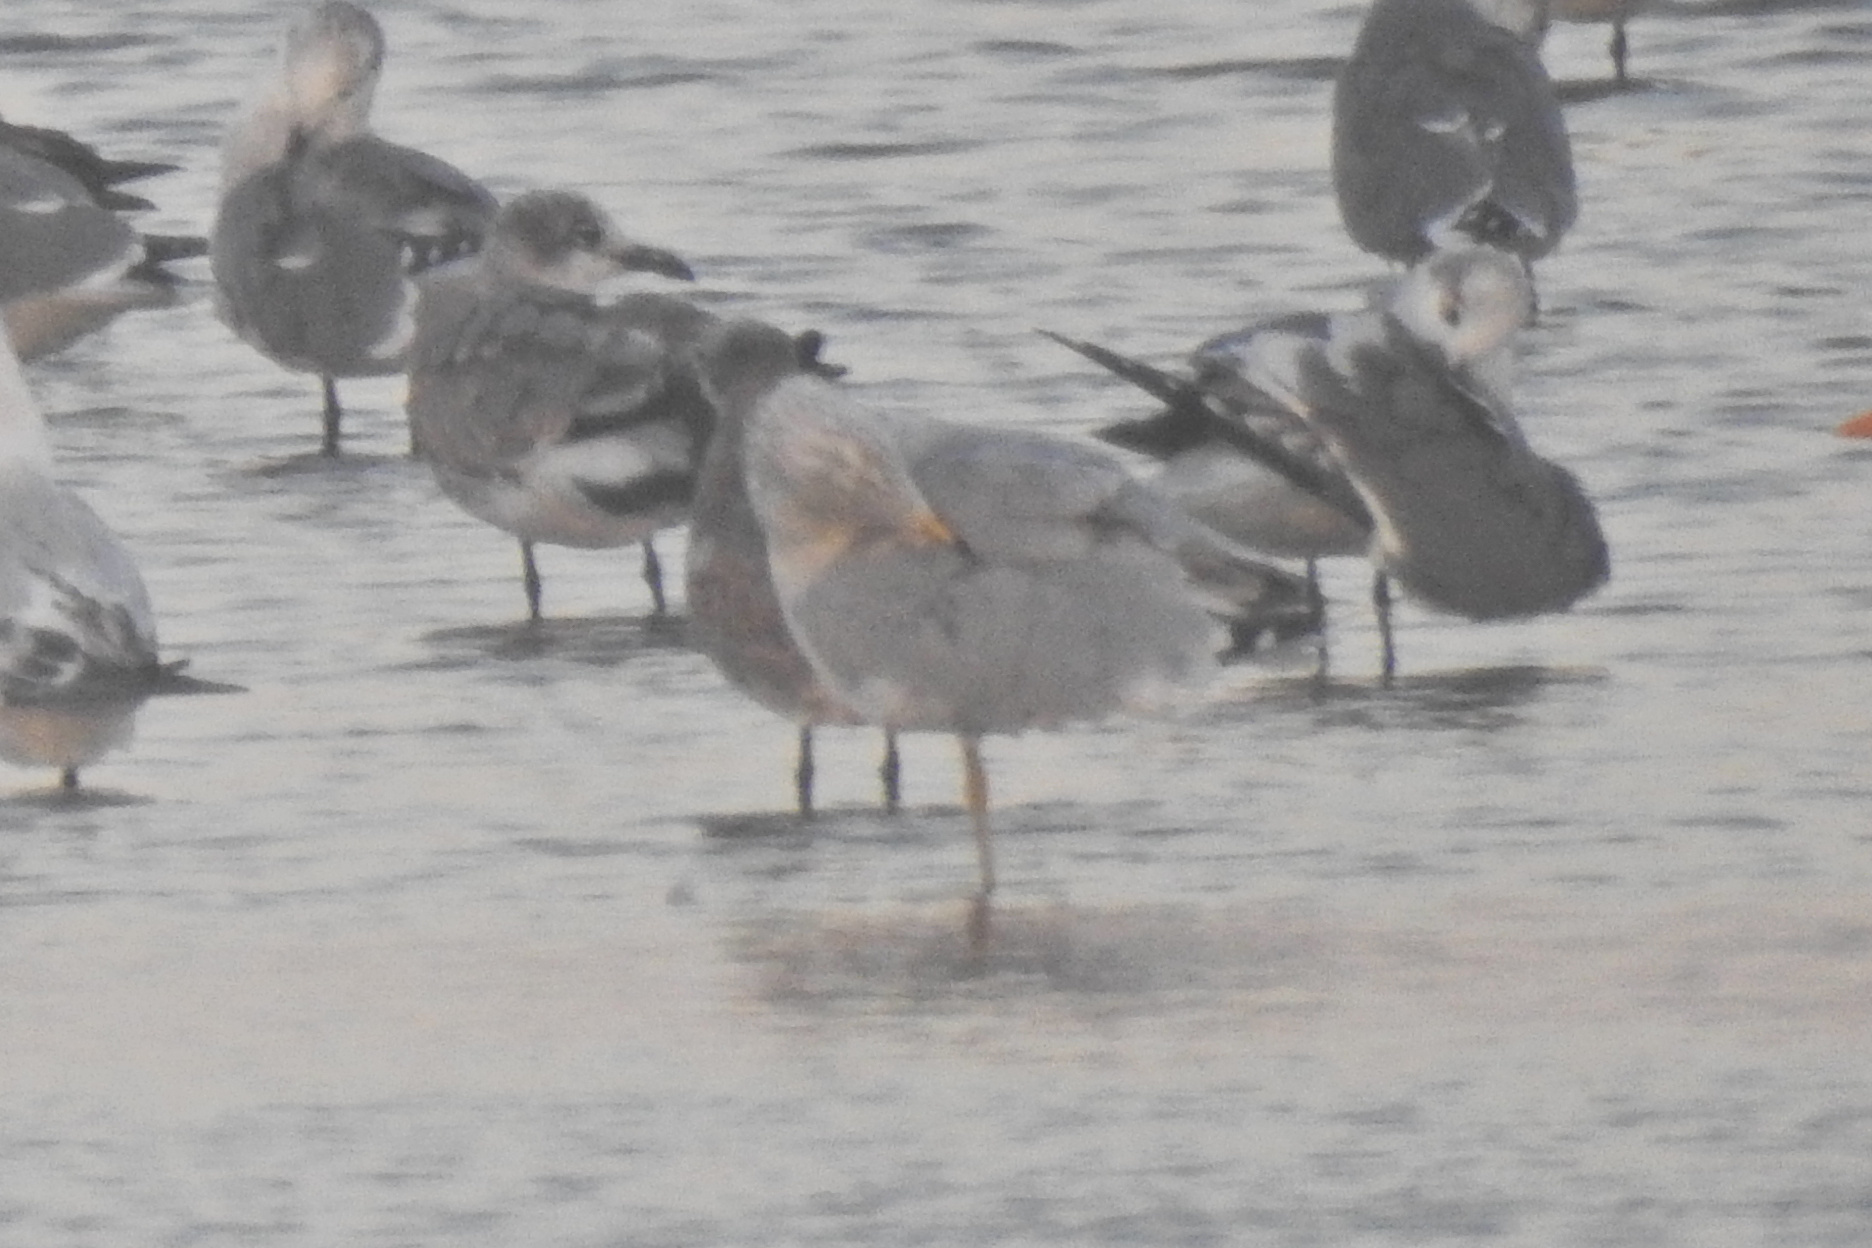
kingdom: Animalia
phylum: Chordata
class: Aves
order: Charadriiformes
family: Laridae
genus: Larus
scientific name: Larus delawarensis
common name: Ring-billed gull
